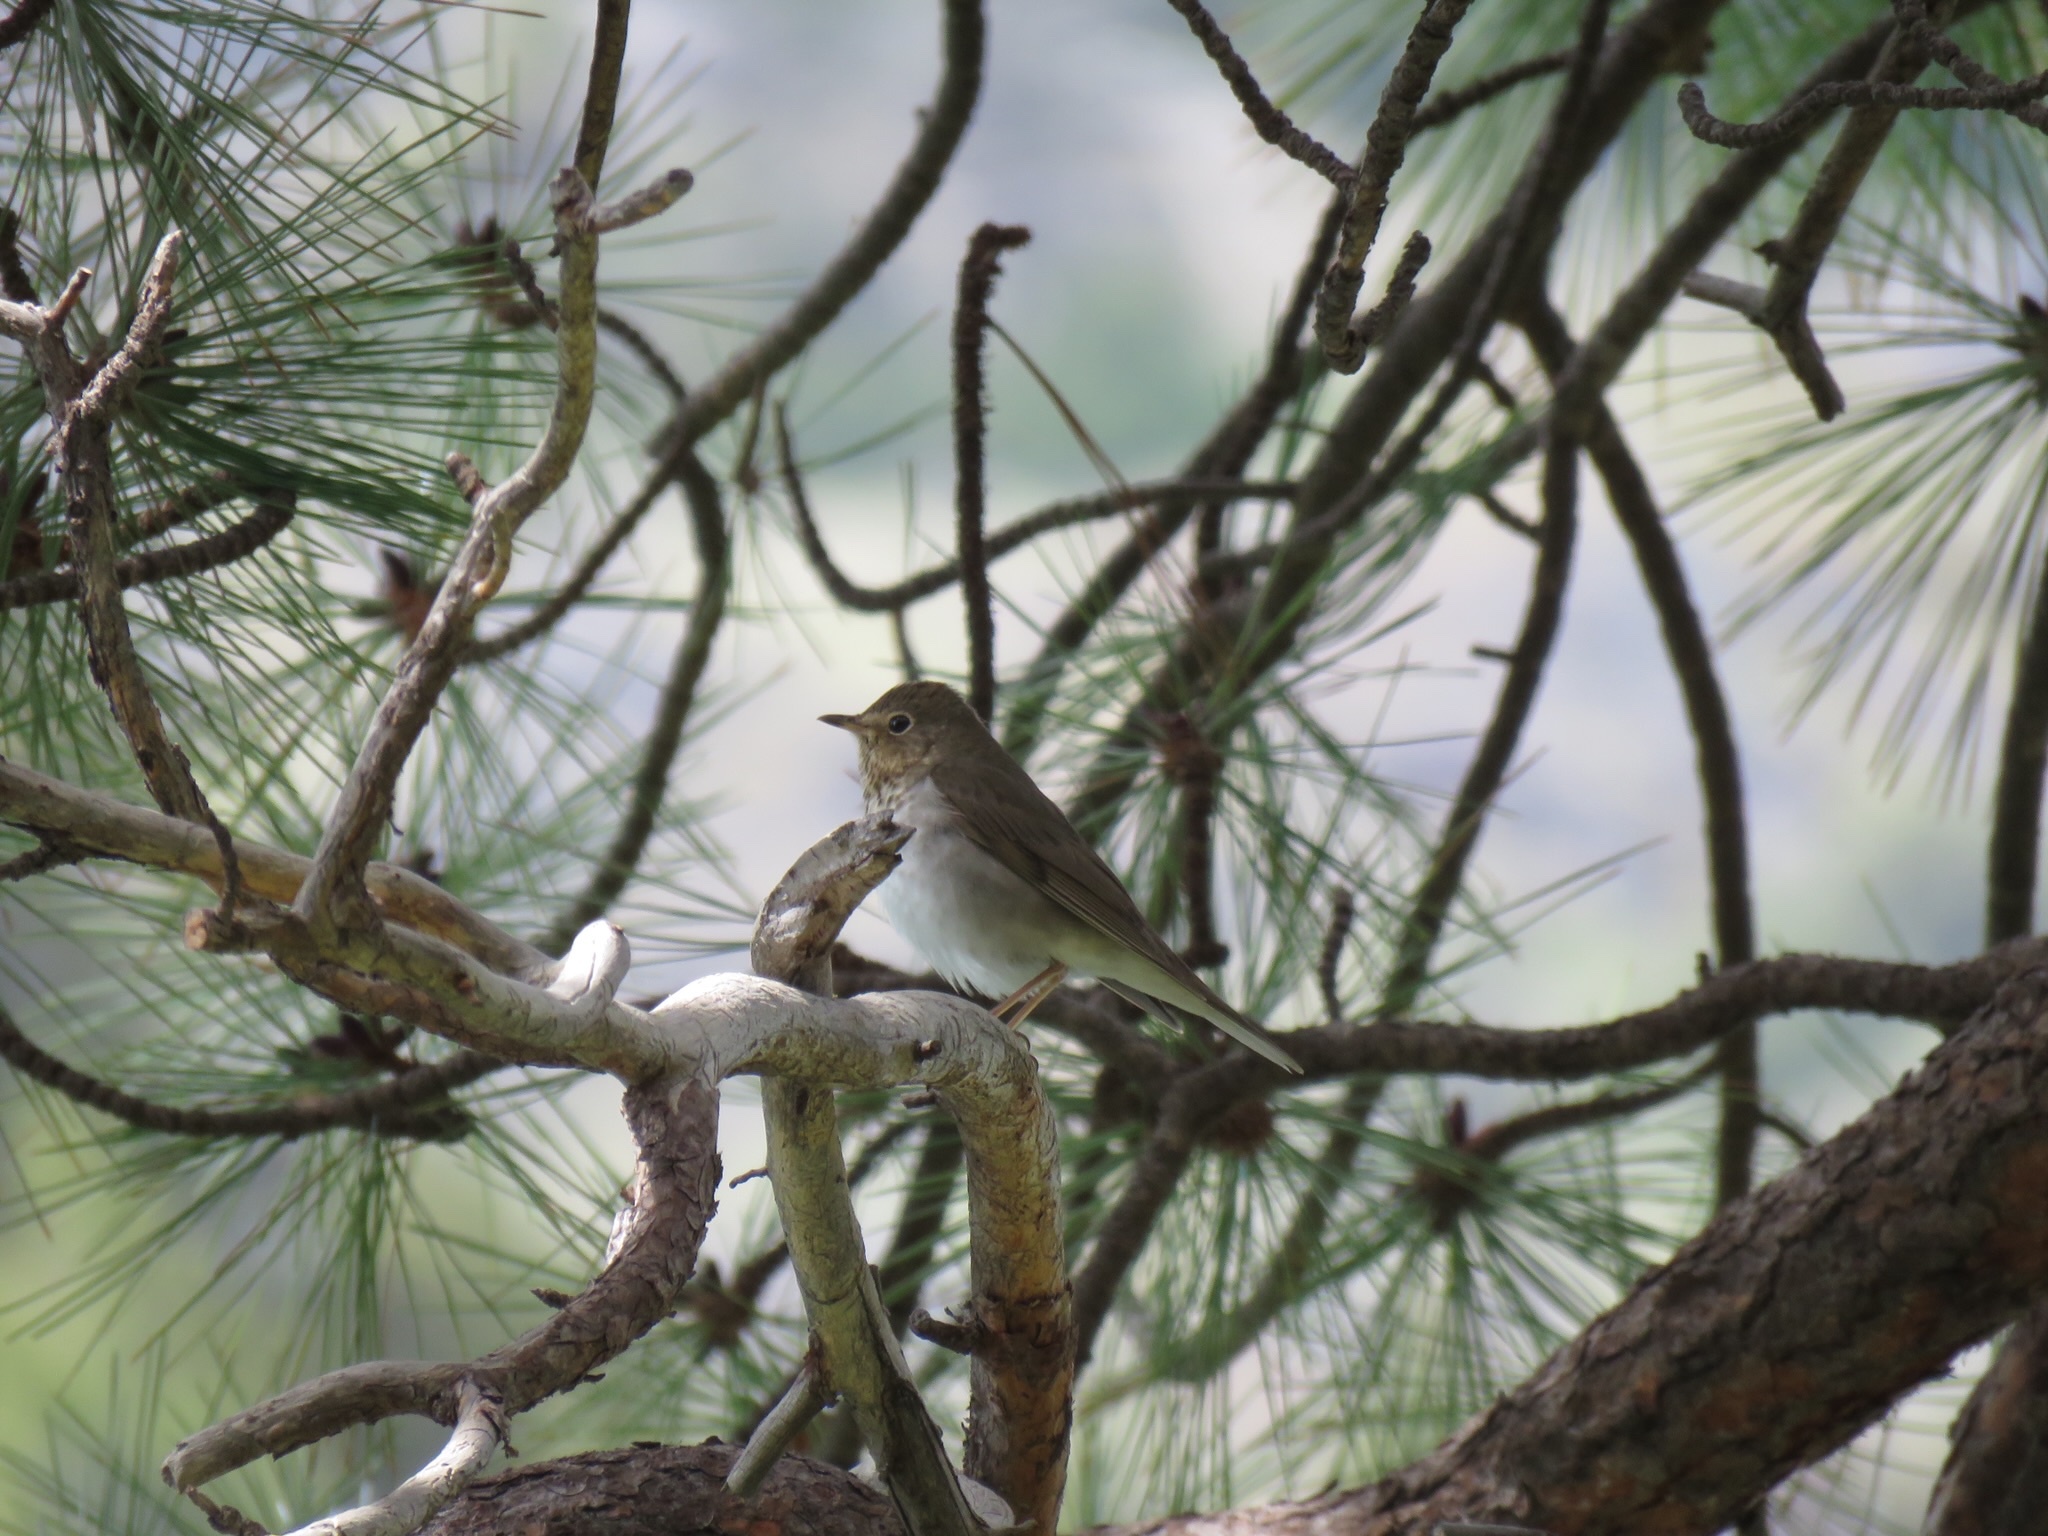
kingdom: Animalia
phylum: Chordata
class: Aves
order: Passeriformes
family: Turdidae
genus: Catharus
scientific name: Catharus ustulatus
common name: Swainson's thrush
